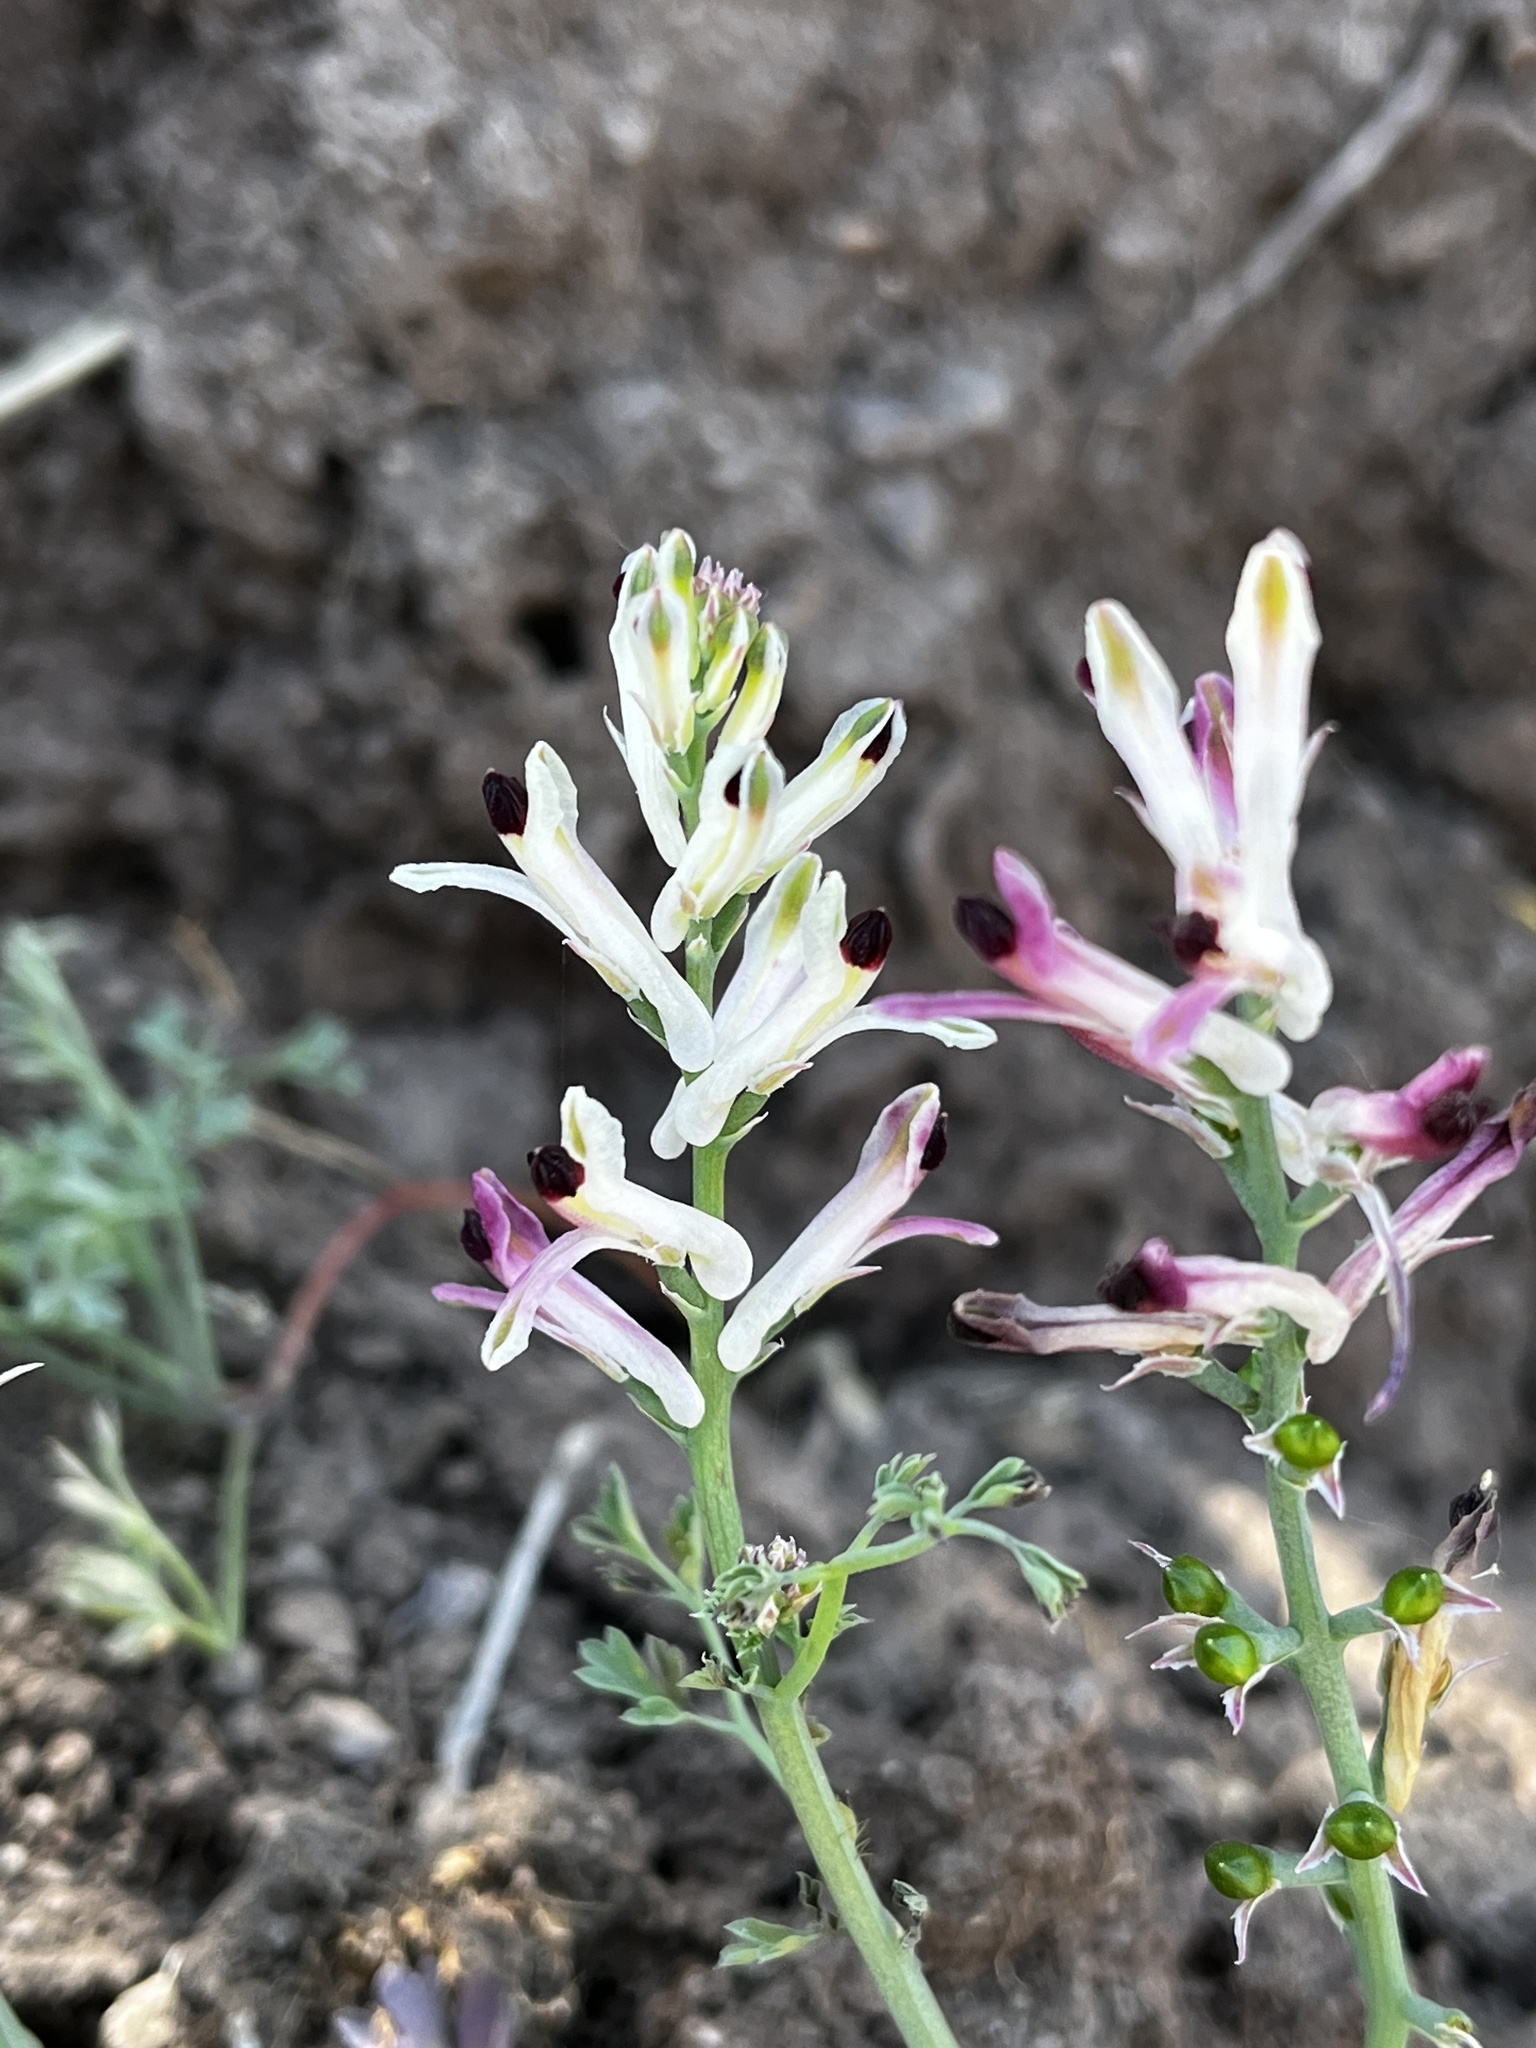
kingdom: Plantae
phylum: Tracheophyta
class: Magnoliopsida
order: Ranunculales
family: Papaveraceae
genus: Fumaria
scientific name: Fumaria agraria
